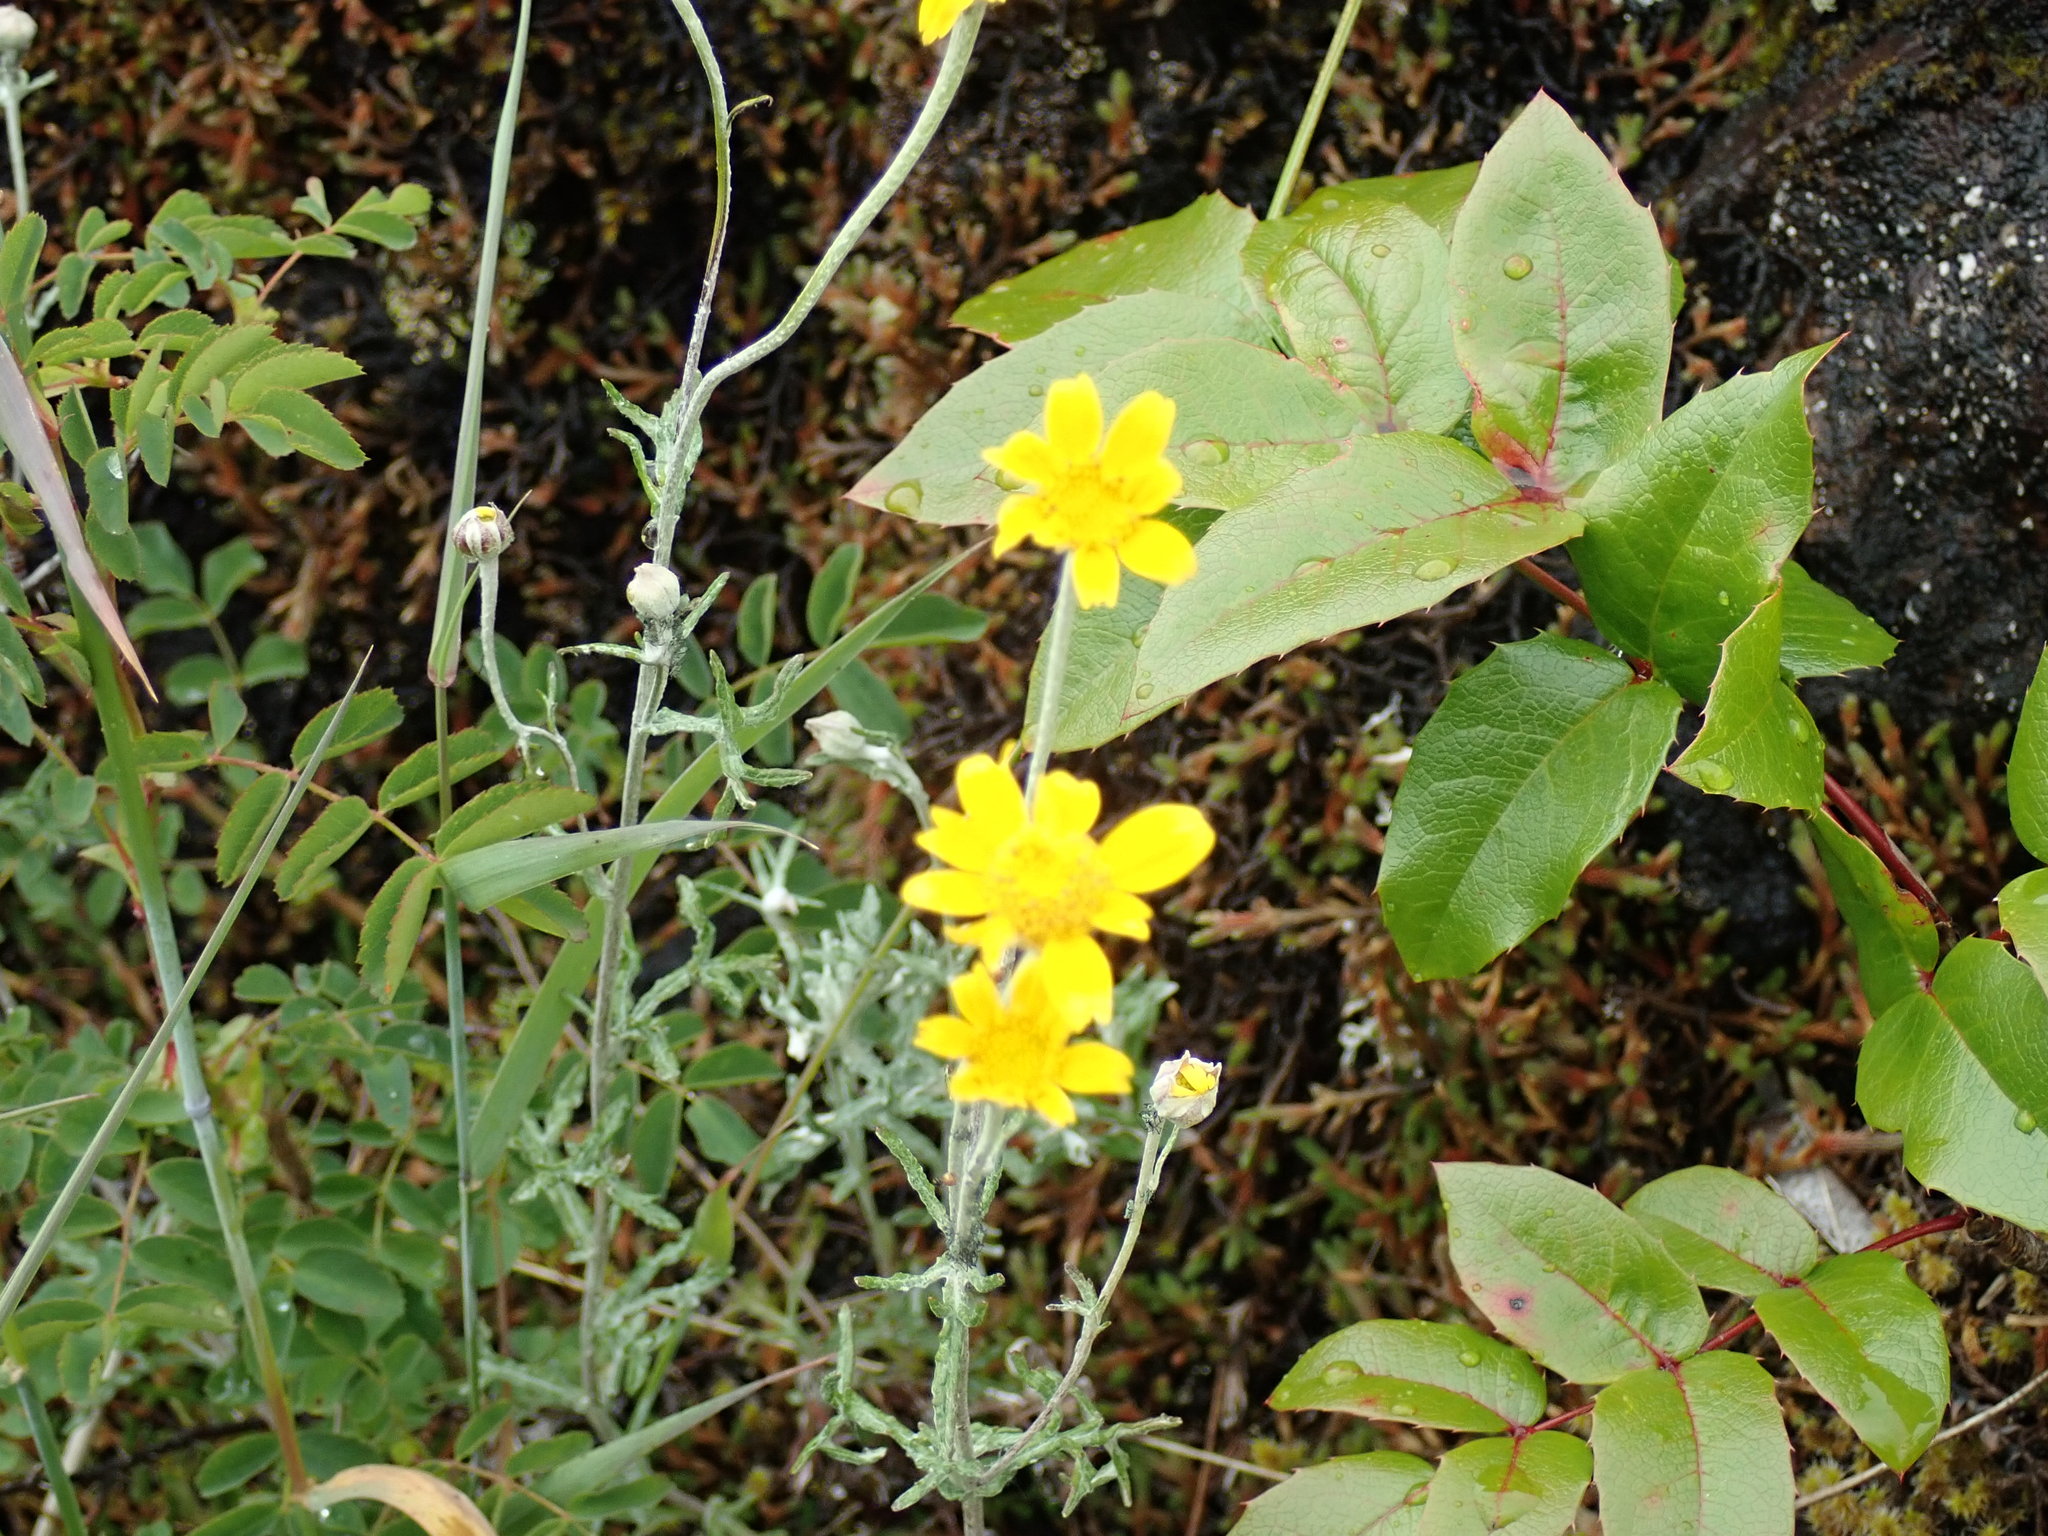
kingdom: Plantae
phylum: Tracheophyta
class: Magnoliopsida
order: Asterales
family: Asteraceae
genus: Eriophyllum
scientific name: Eriophyllum lanatum
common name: Common woolly-sunflower
